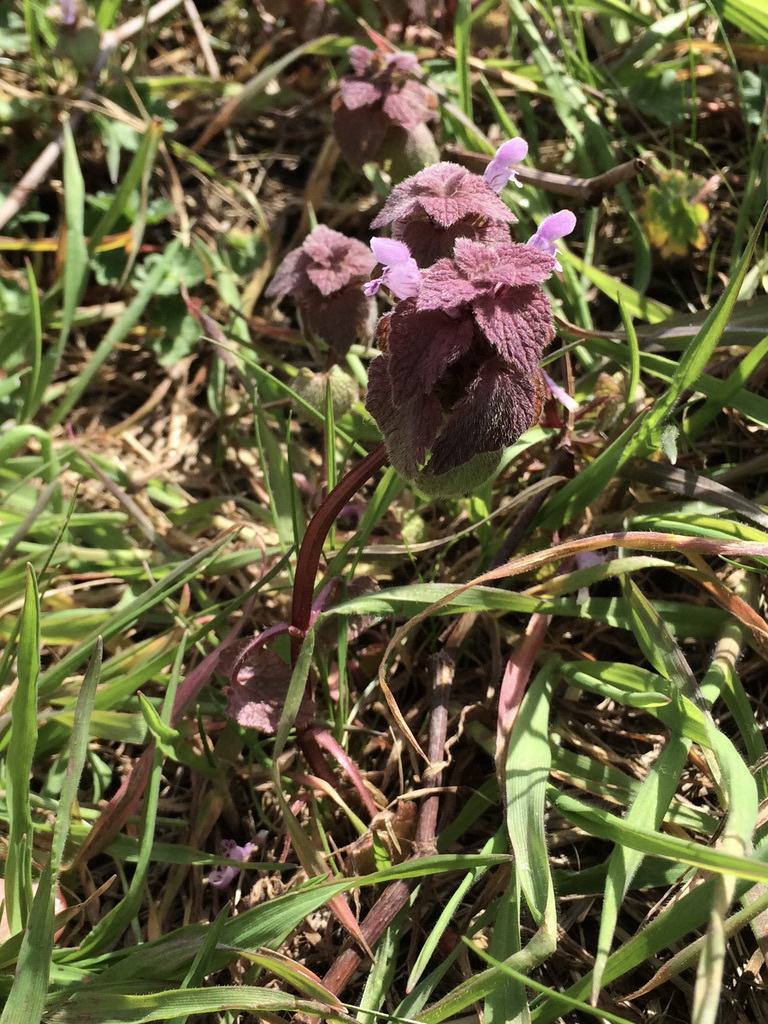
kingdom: Plantae
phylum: Tracheophyta
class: Magnoliopsida
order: Lamiales
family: Lamiaceae
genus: Lamium
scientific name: Lamium purpureum
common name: Red dead-nettle
